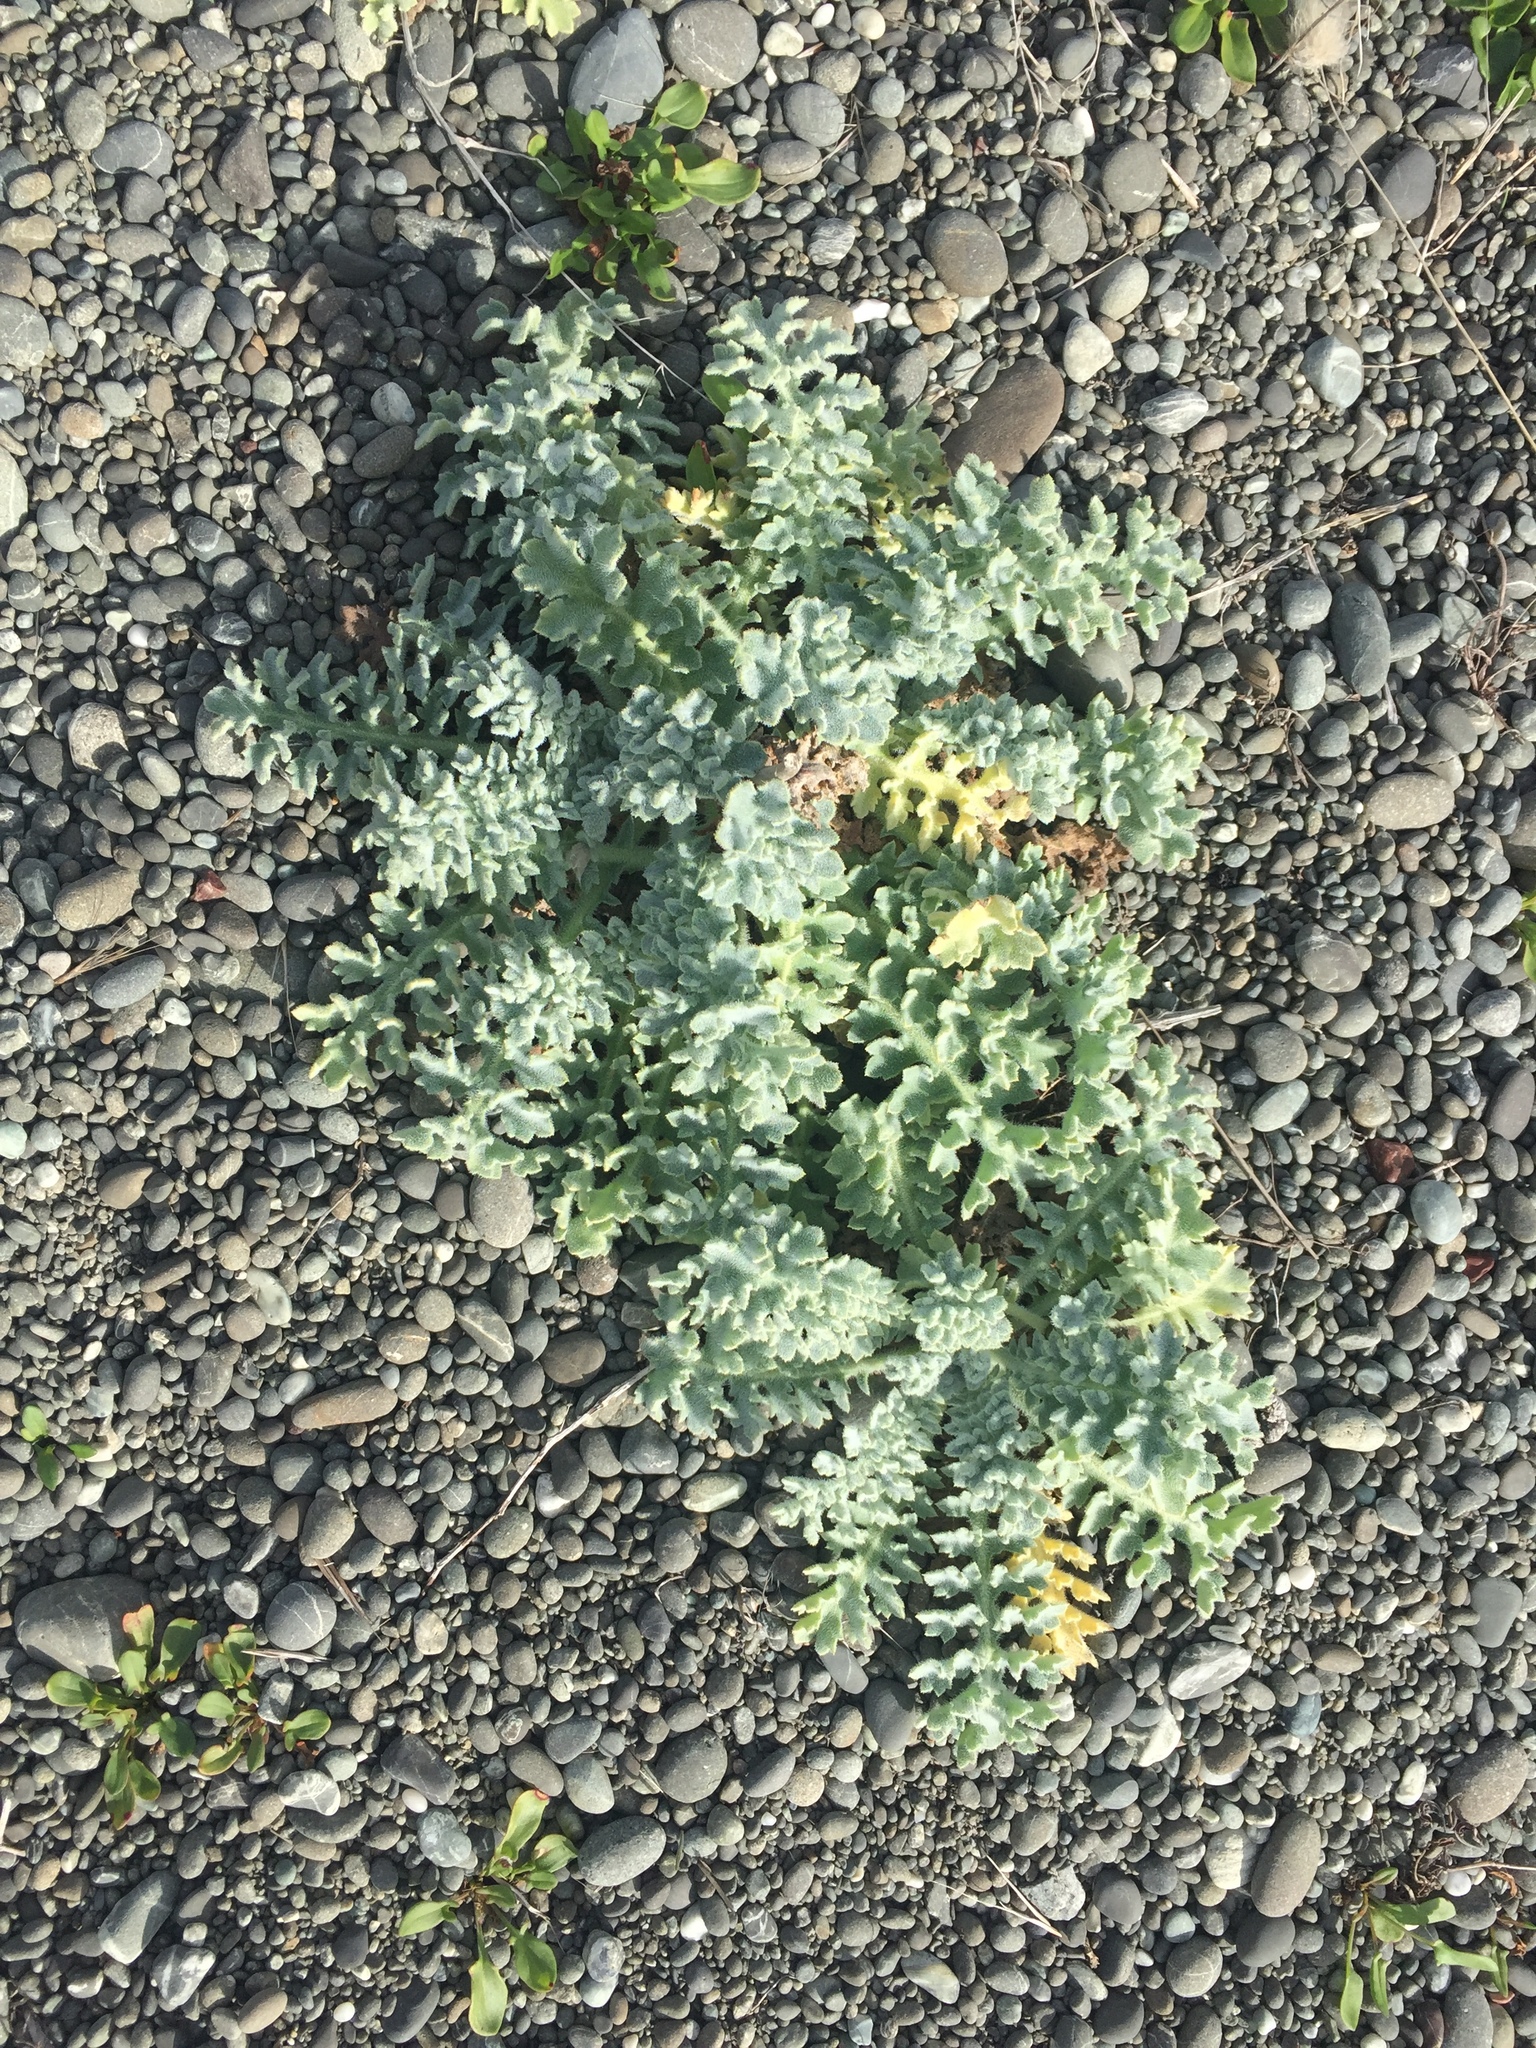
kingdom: Plantae
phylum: Tracheophyta
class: Magnoliopsida
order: Ranunculales
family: Papaveraceae
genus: Glaucium
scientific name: Glaucium flavum
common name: Yellow horned-poppy
